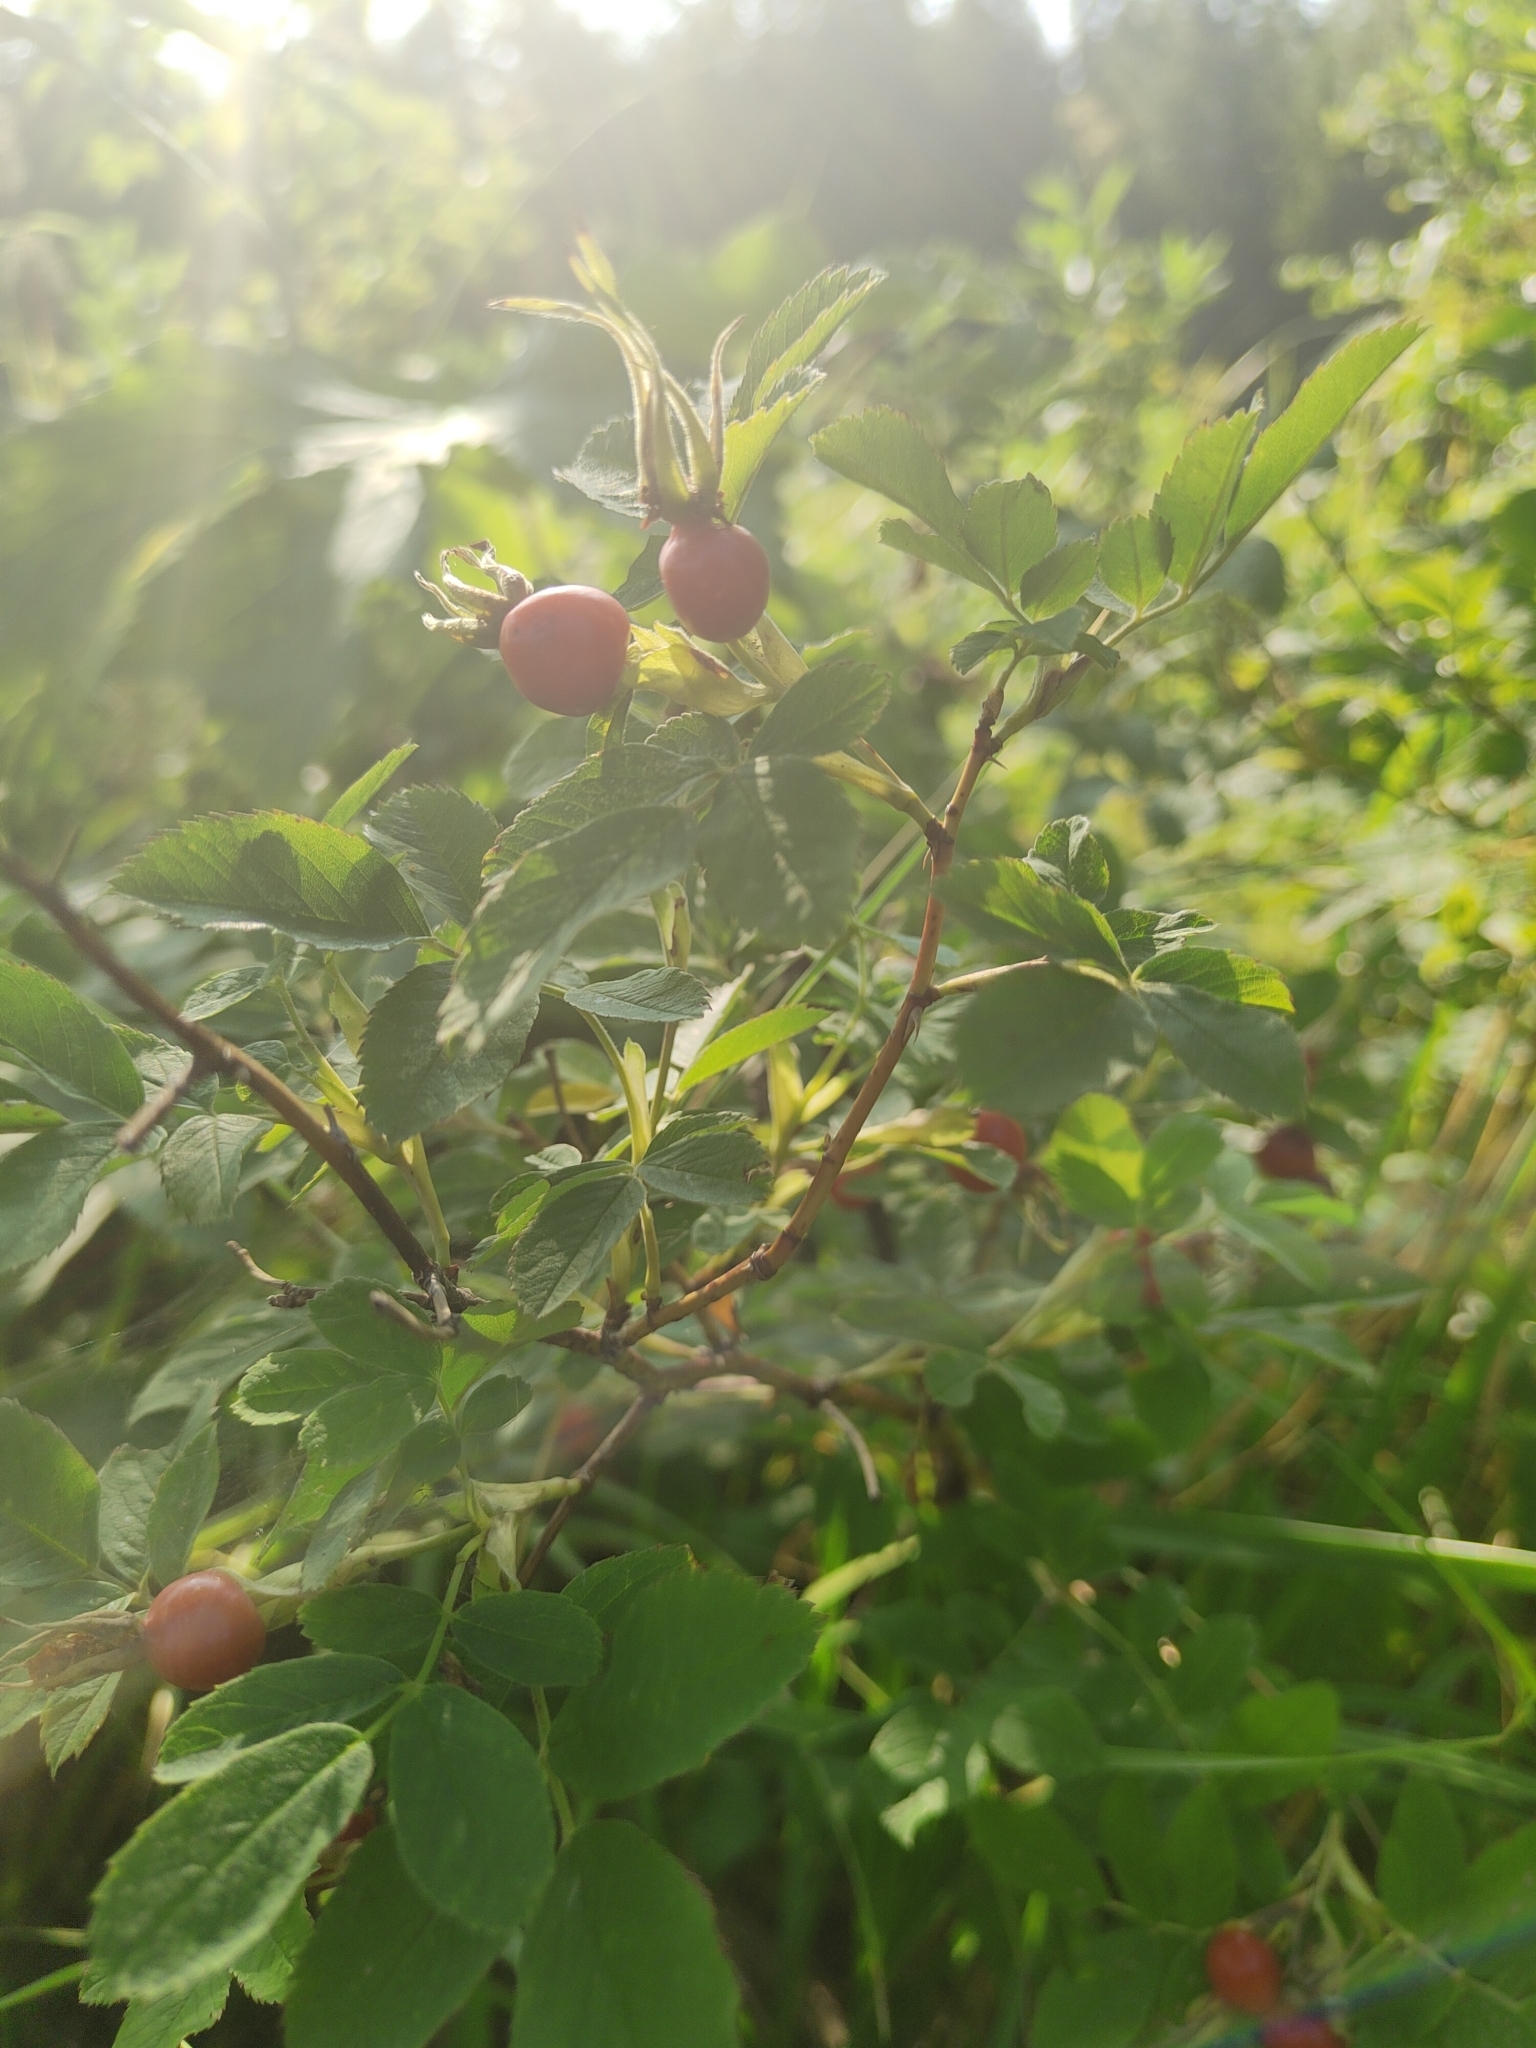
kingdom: Plantae
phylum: Tracheophyta
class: Magnoliopsida
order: Rosales
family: Rosaceae
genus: Rosa
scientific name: Rosa
